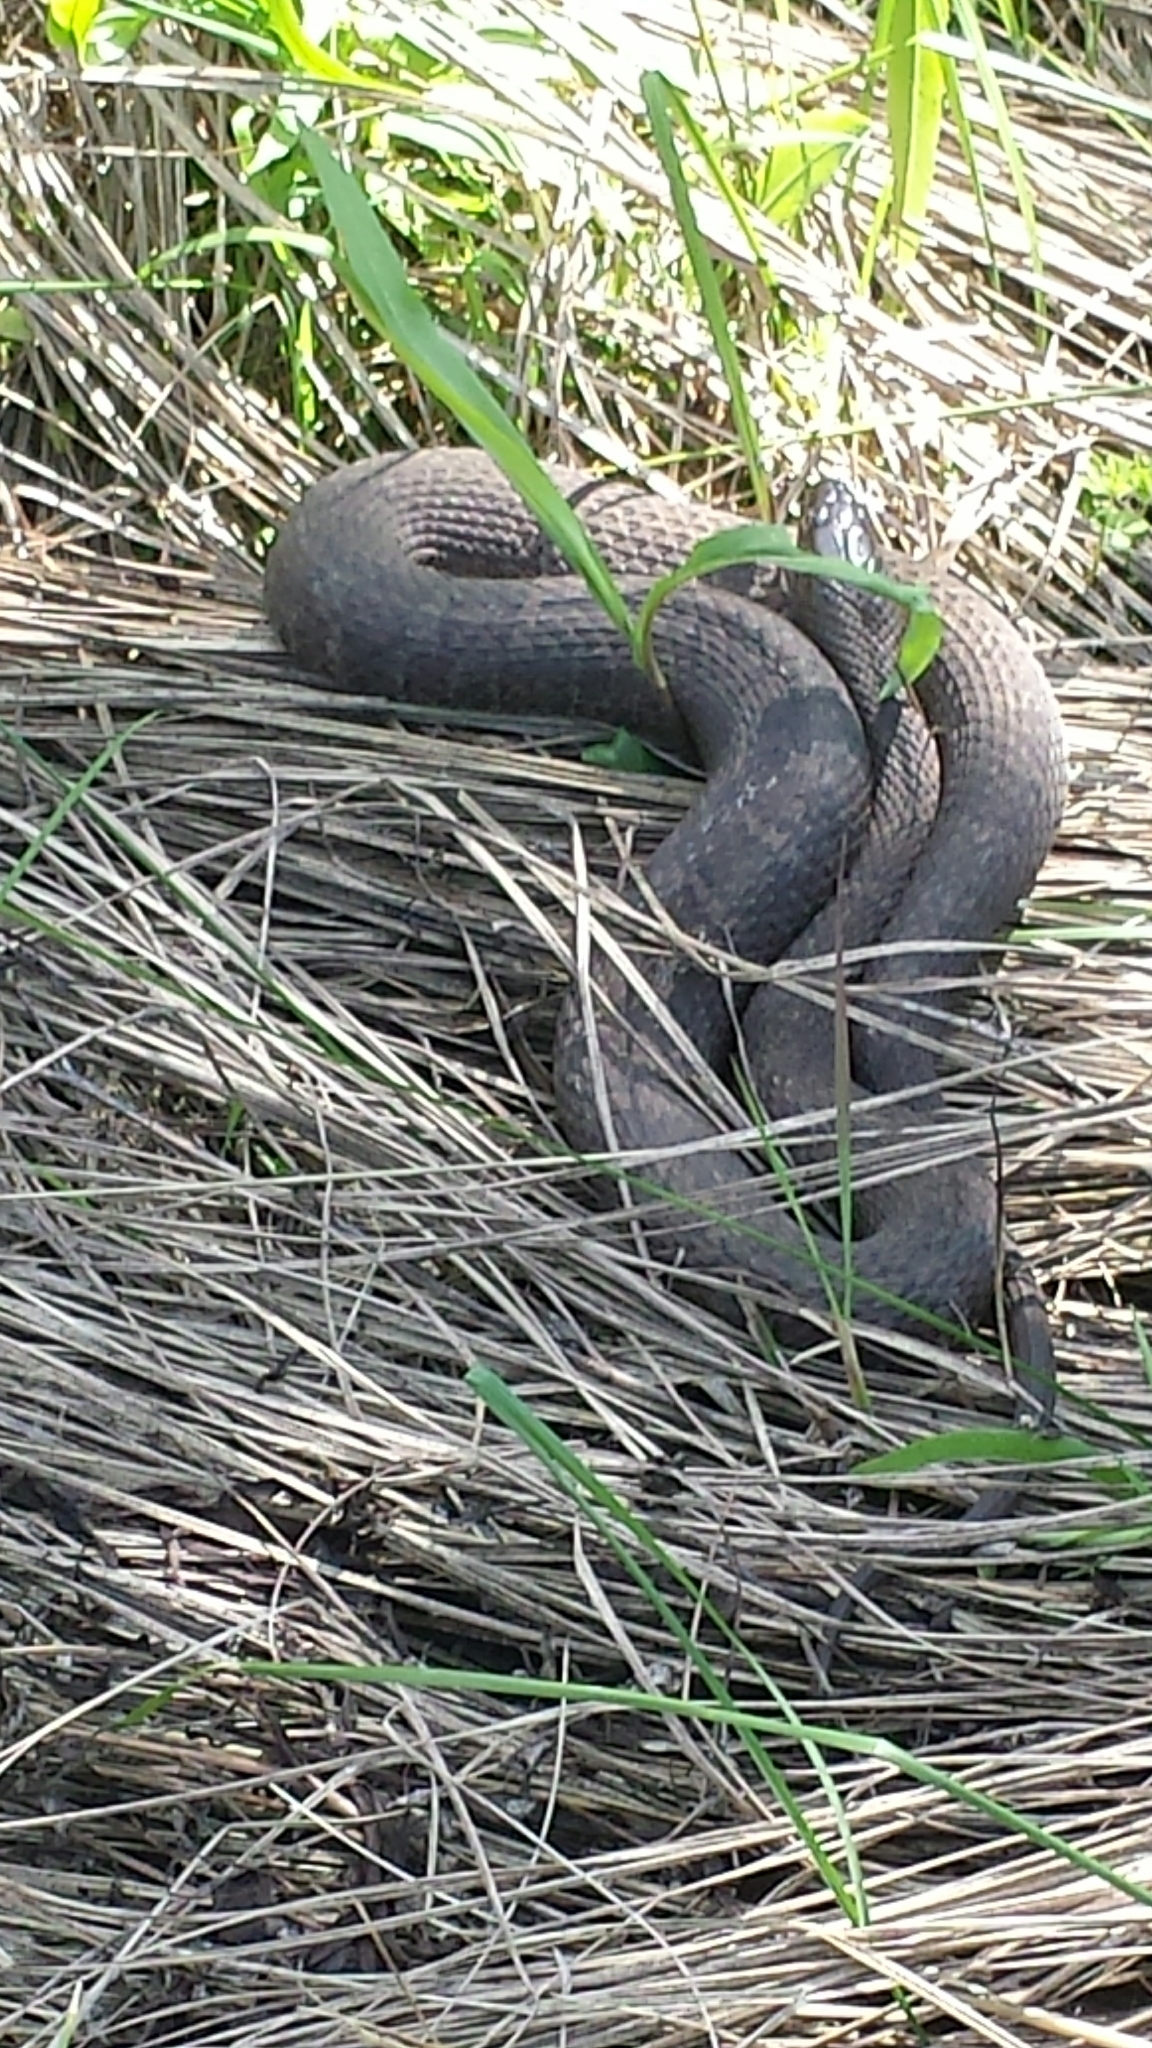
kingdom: Animalia
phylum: Chordata
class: Squamata
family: Colubridae
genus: Nerodia
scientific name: Nerodia sipedon
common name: Northern water snake
